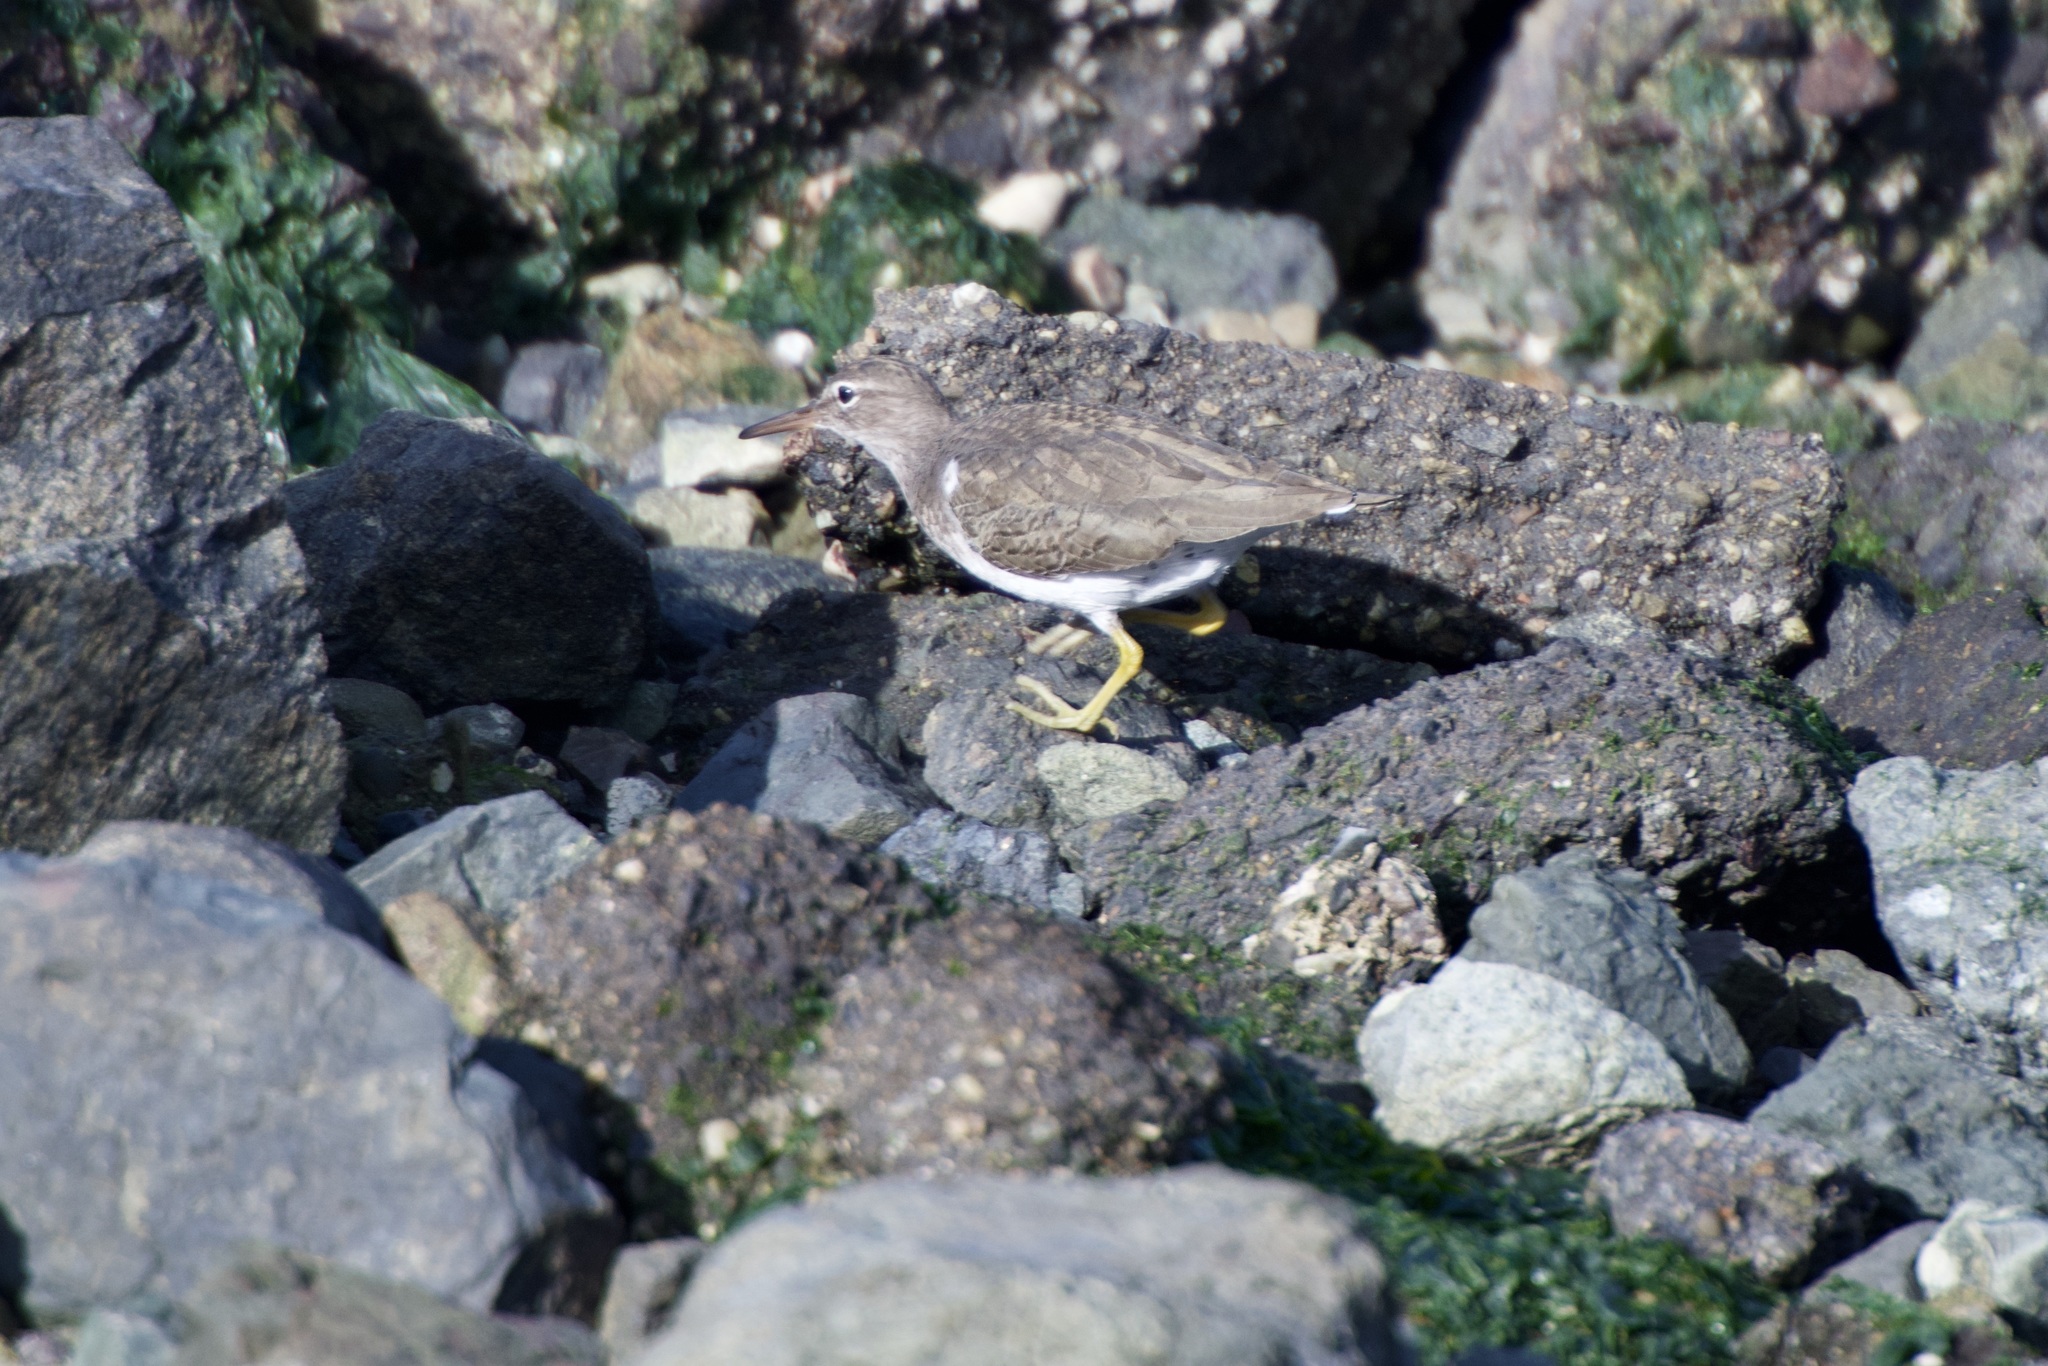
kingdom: Animalia
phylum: Chordata
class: Aves
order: Charadriiformes
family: Scolopacidae
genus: Actitis
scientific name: Actitis macularius
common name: Spotted sandpiper
